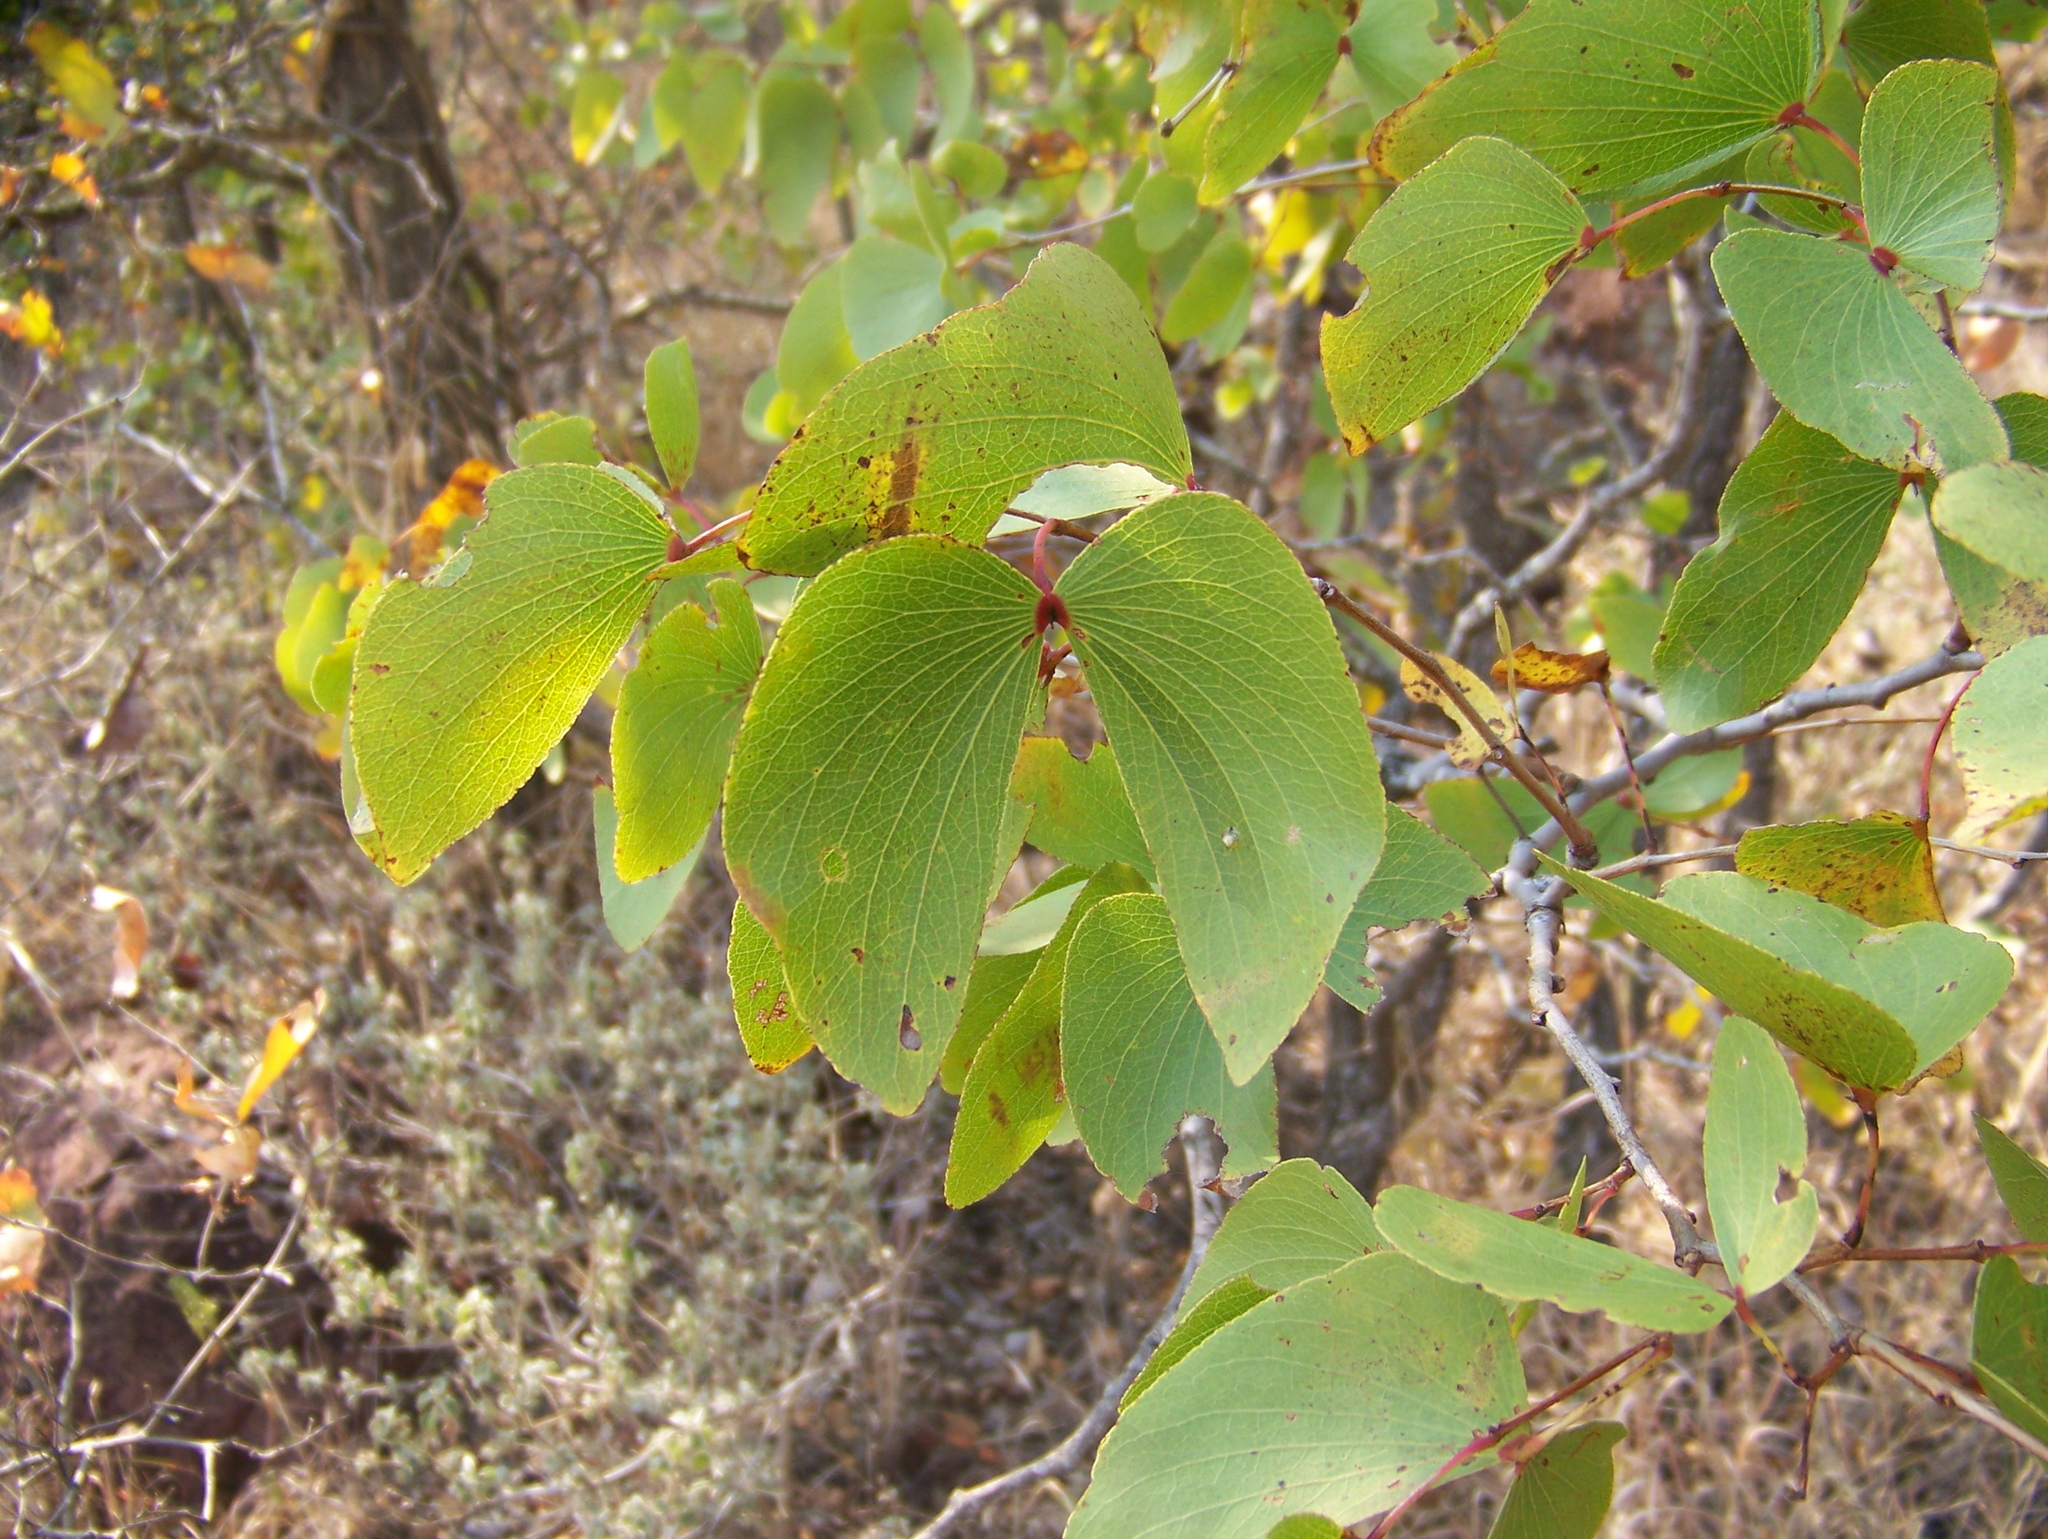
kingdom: Plantae
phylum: Tracheophyta
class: Magnoliopsida
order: Fabales
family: Fabaceae
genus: Colophospermum
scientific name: Colophospermum mopane
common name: Mopane
